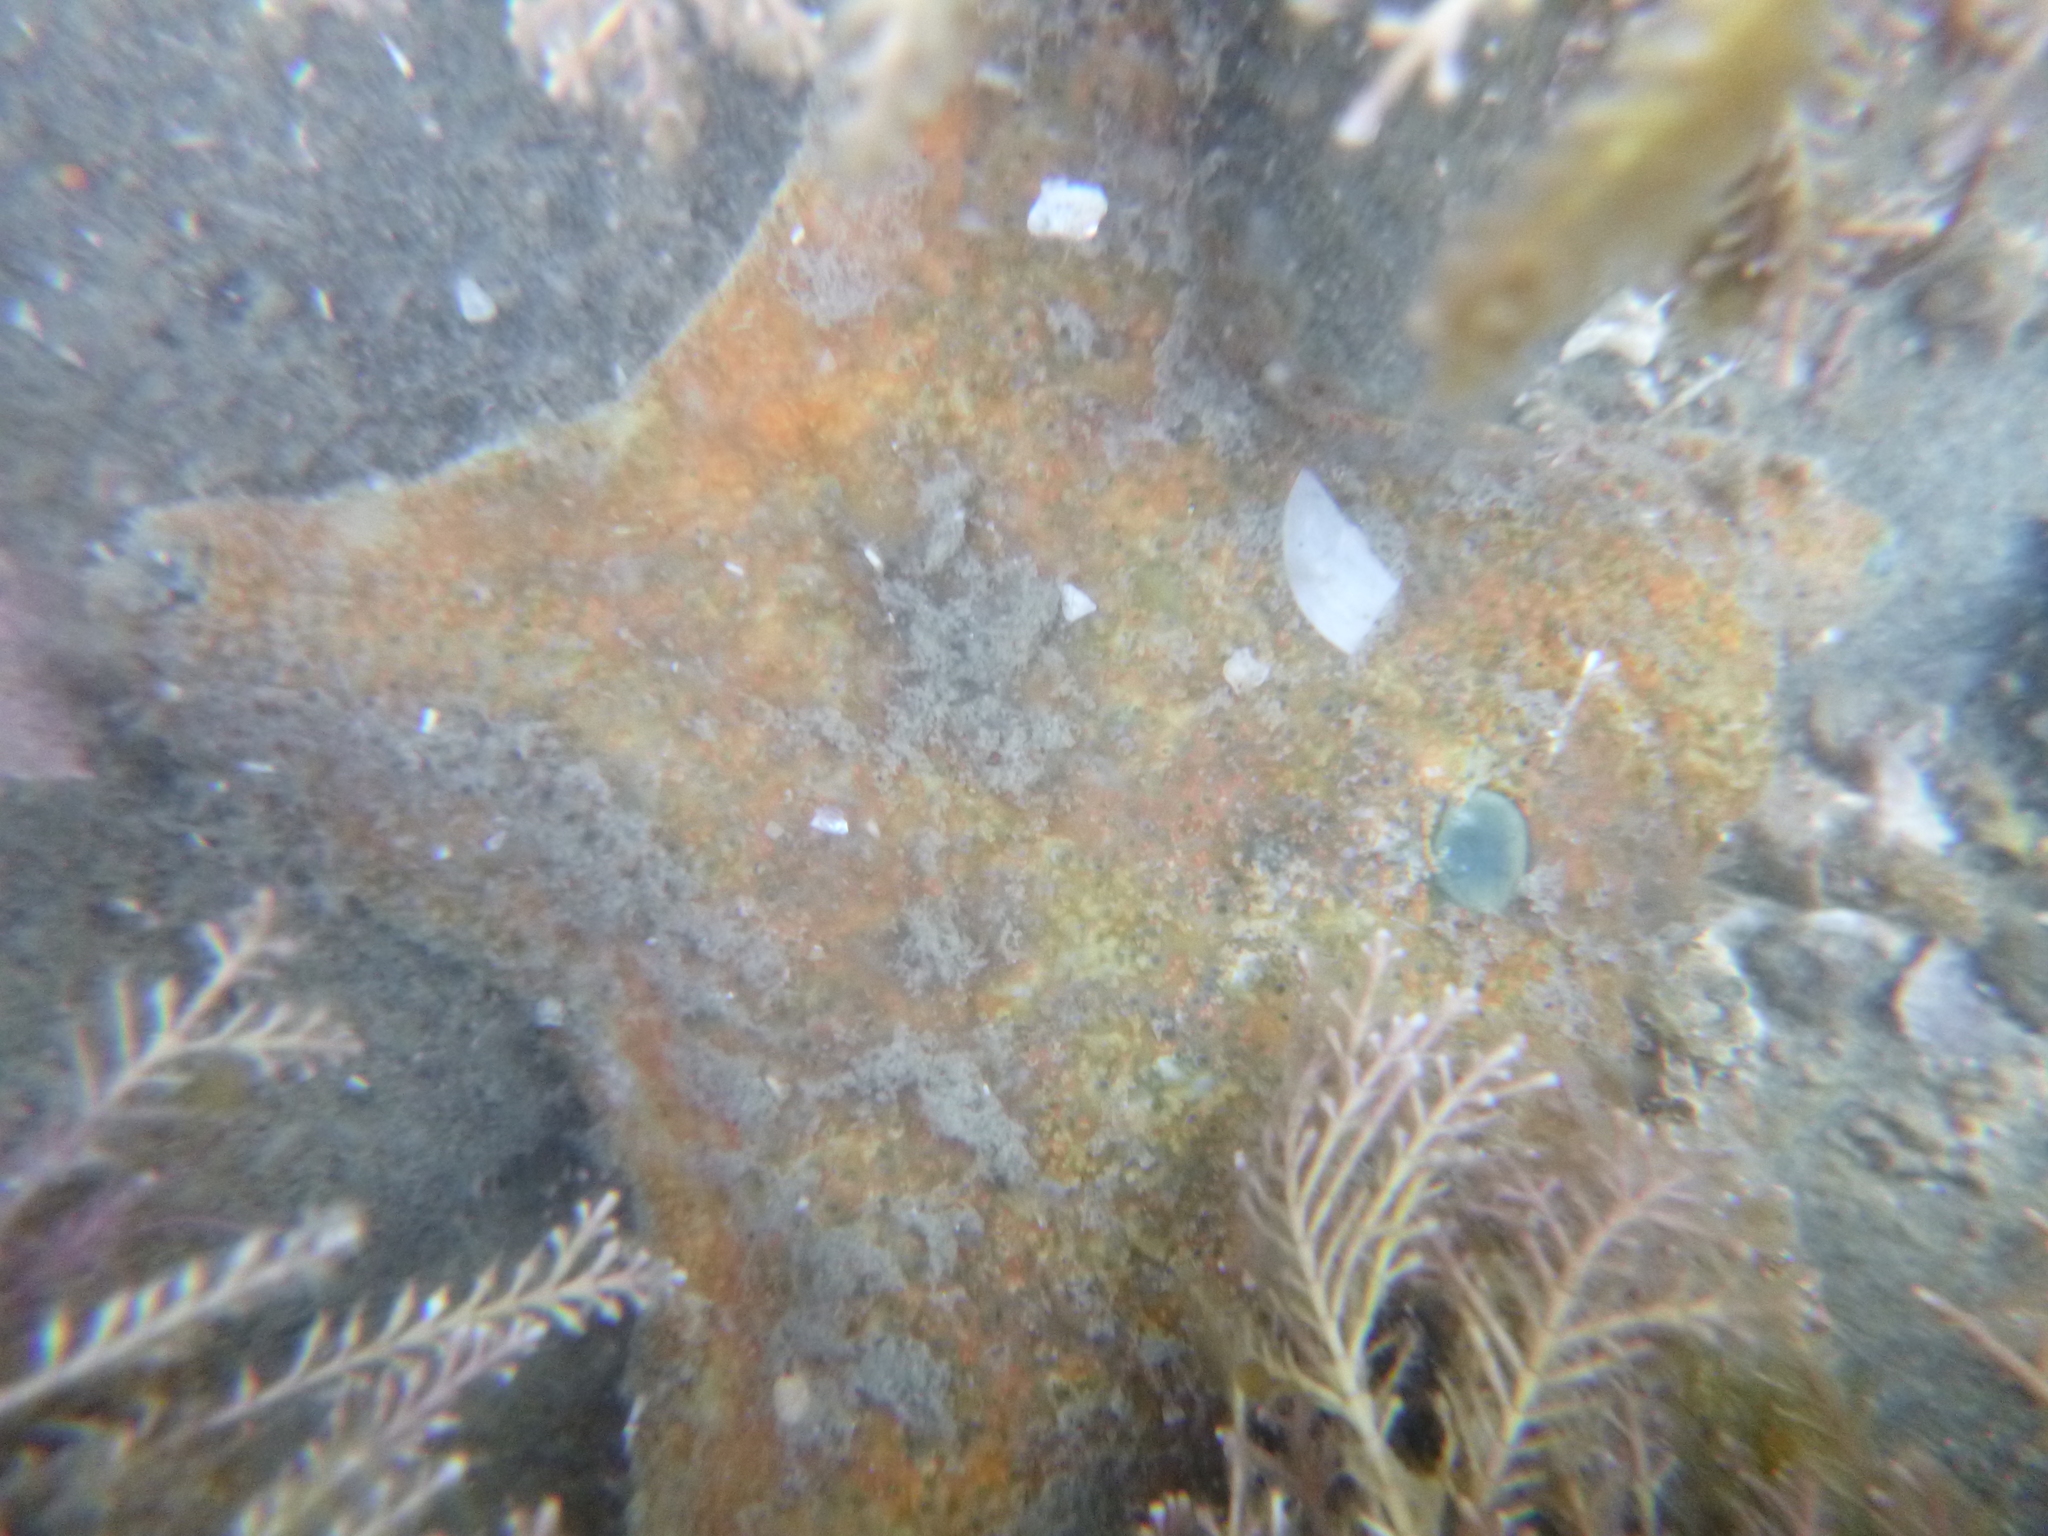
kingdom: Animalia
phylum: Echinodermata
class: Asteroidea
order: Valvatida
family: Asterinidae
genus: Patiriella
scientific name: Patiriella regularis
